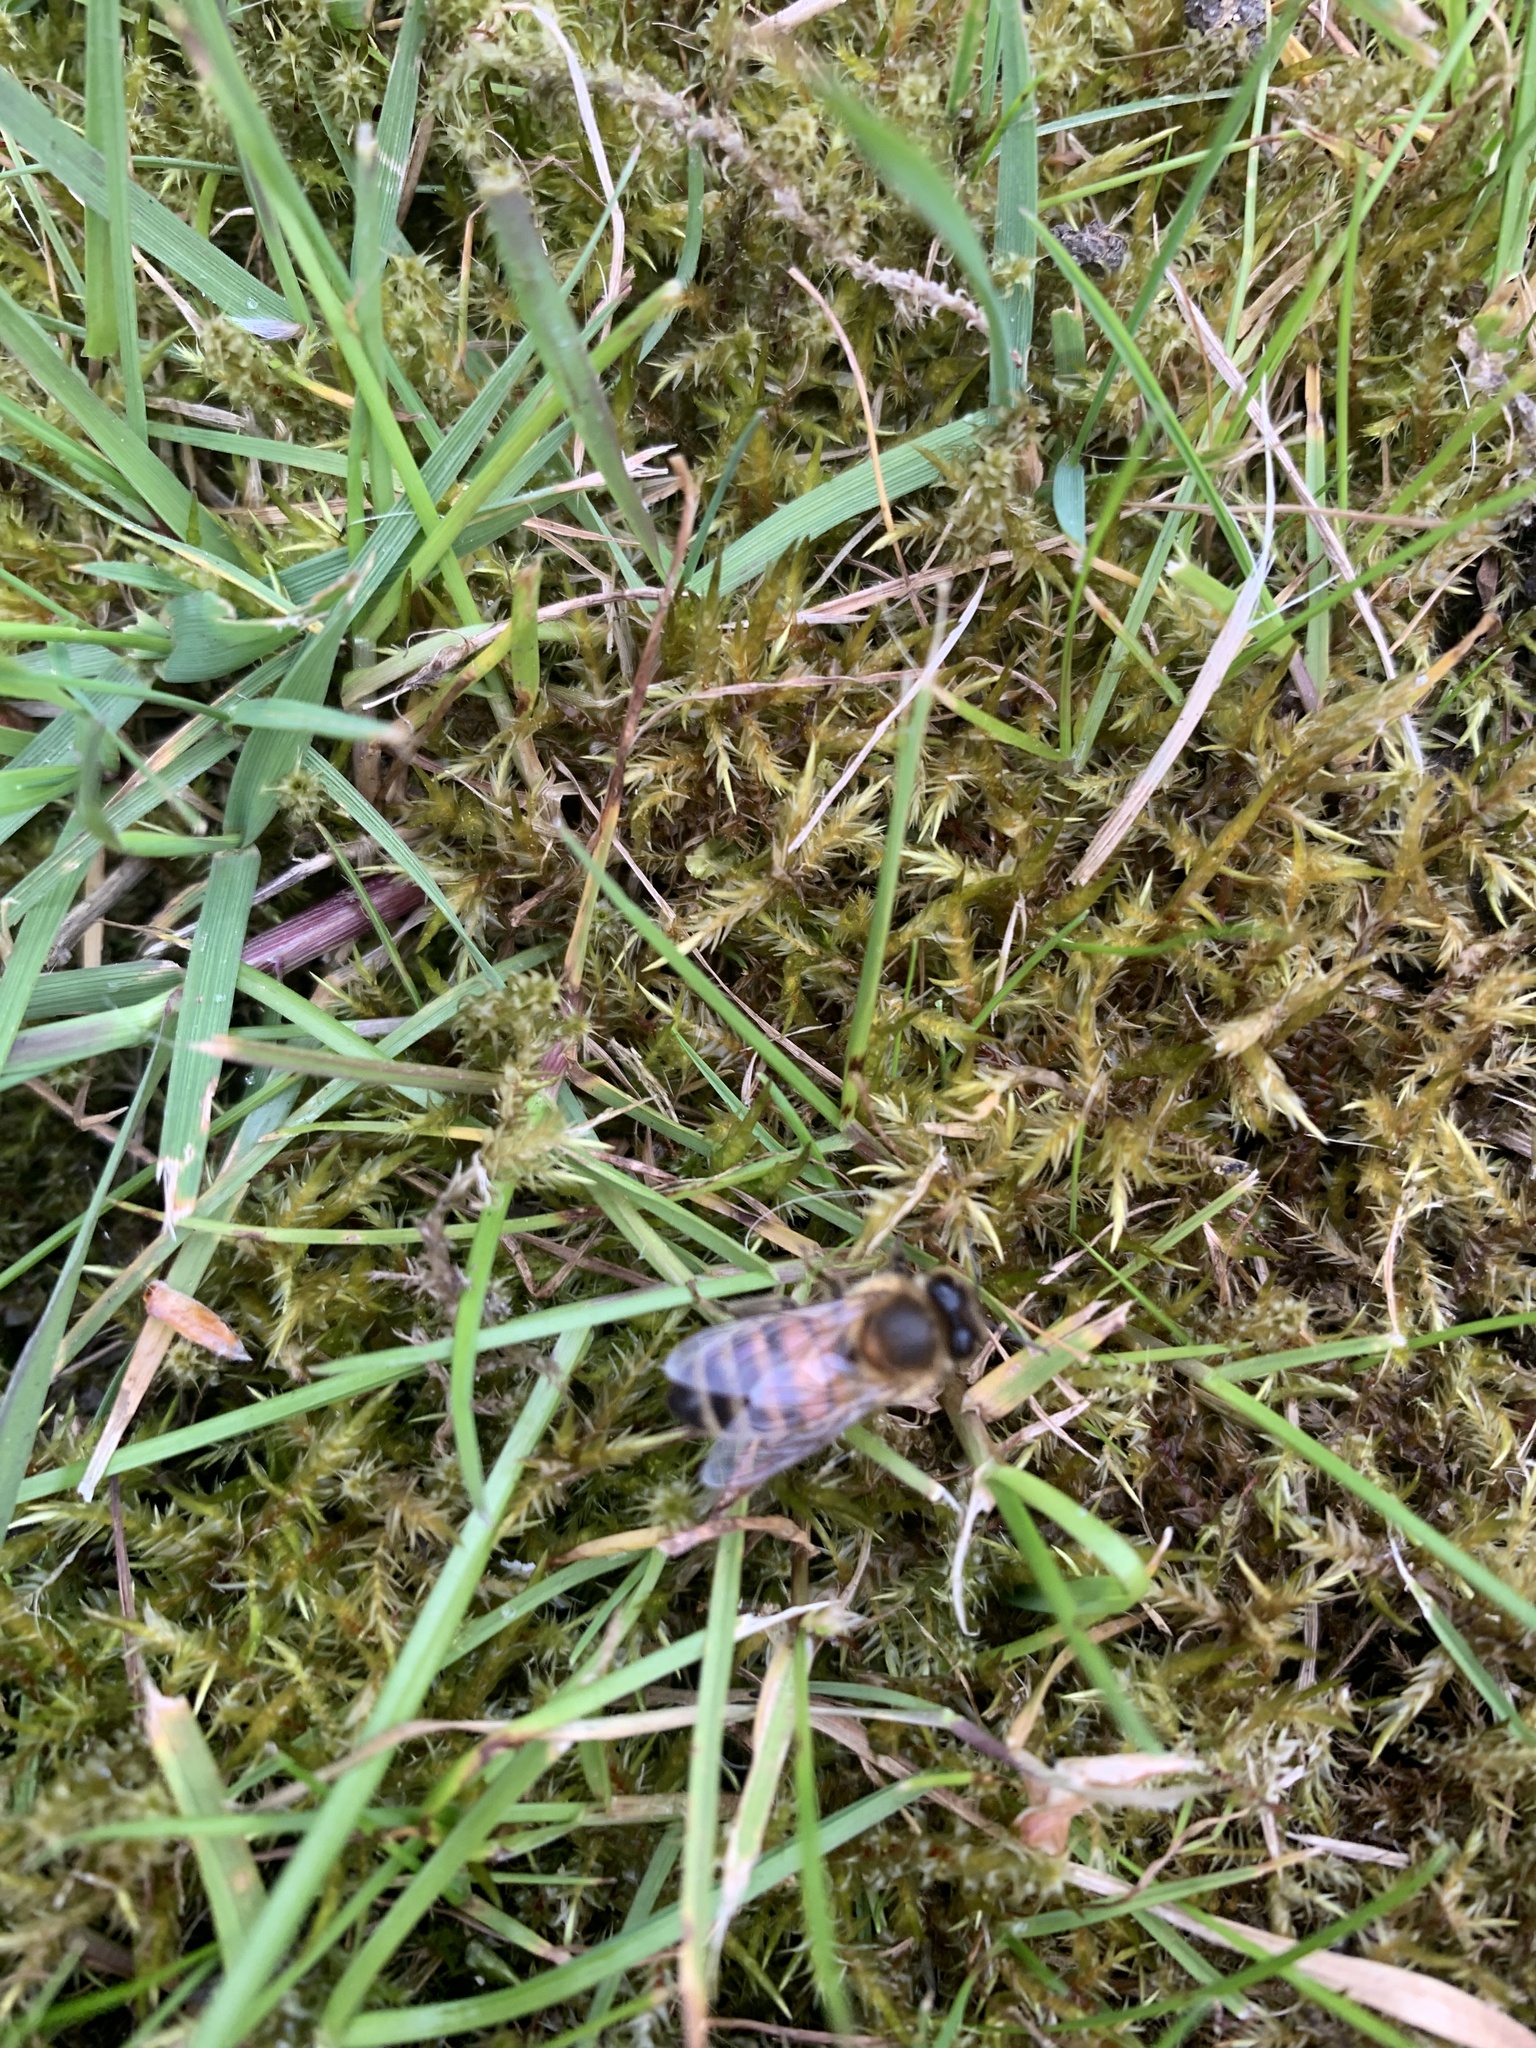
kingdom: Animalia
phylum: Arthropoda
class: Insecta
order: Hymenoptera
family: Apidae
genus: Apis
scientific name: Apis mellifera
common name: Honey bee
